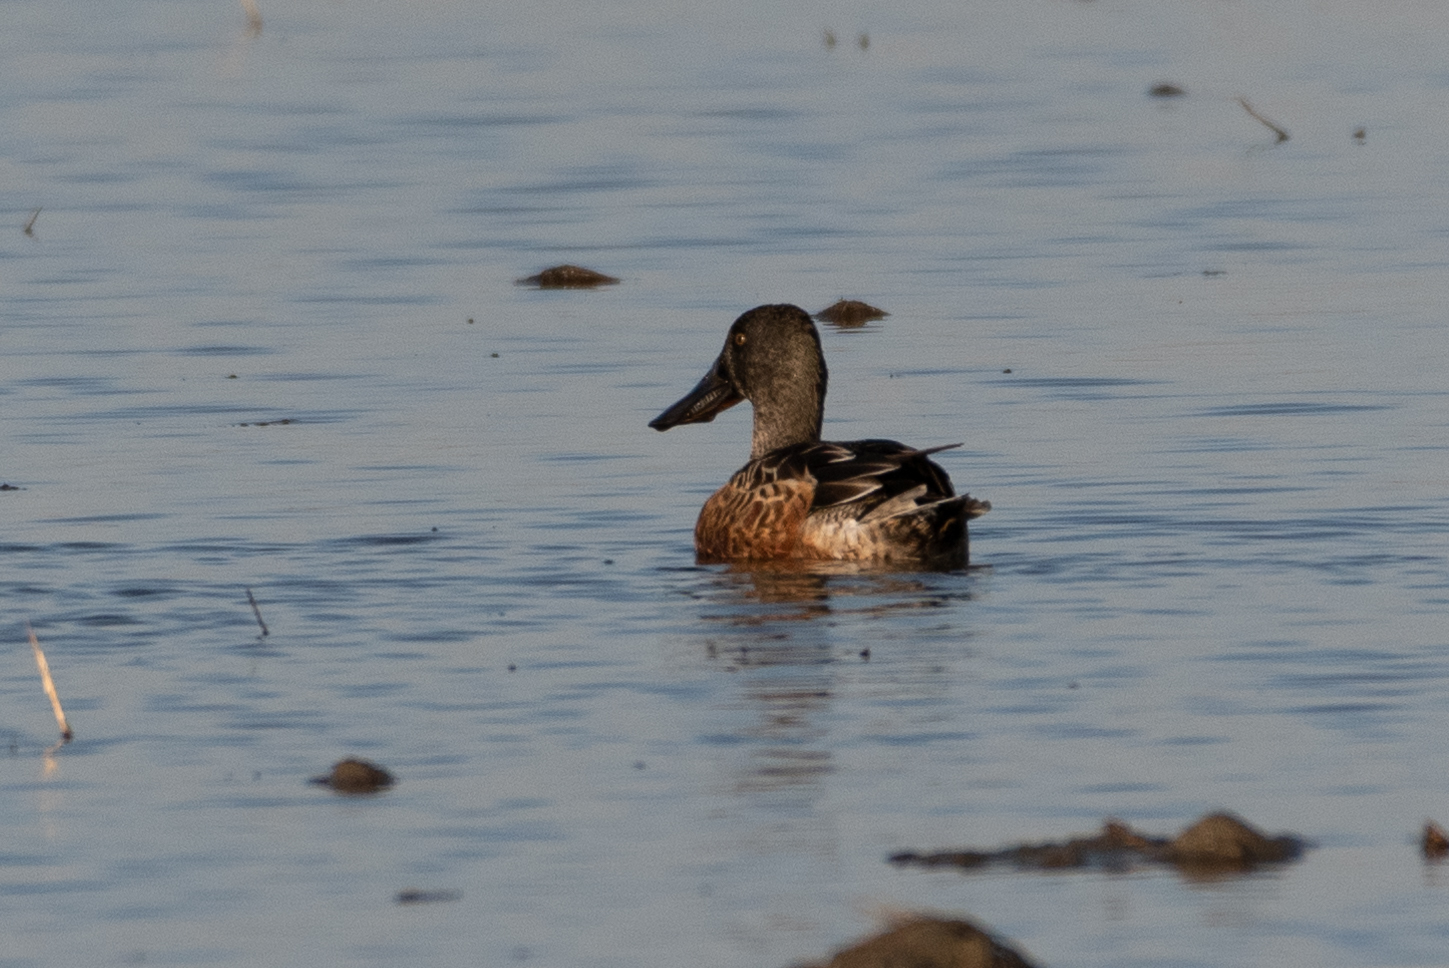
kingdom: Animalia
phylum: Chordata
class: Aves
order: Anseriformes
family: Anatidae
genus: Spatula
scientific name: Spatula clypeata
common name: Northern shoveler
